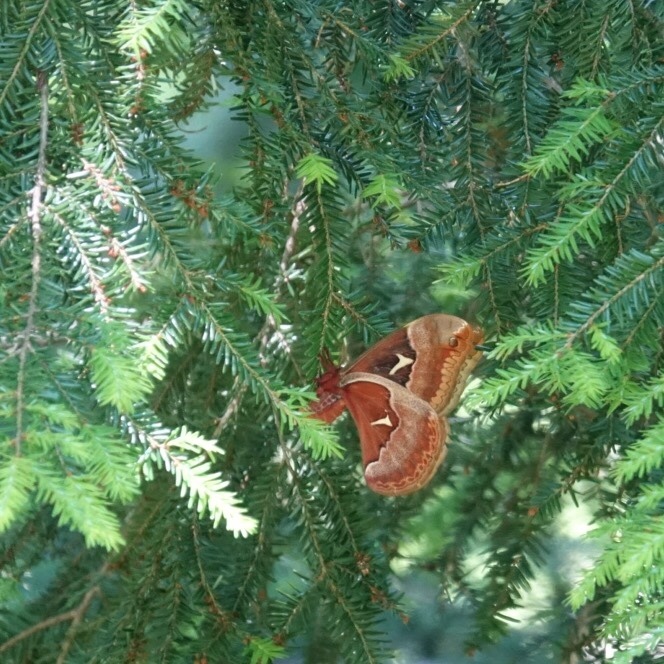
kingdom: Animalia
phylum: Arthropoda
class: Insecta
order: Lepidoptera
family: Saturniidae
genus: Callosamia
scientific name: Callosamia angulifera
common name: Tulip tree silkmoth
